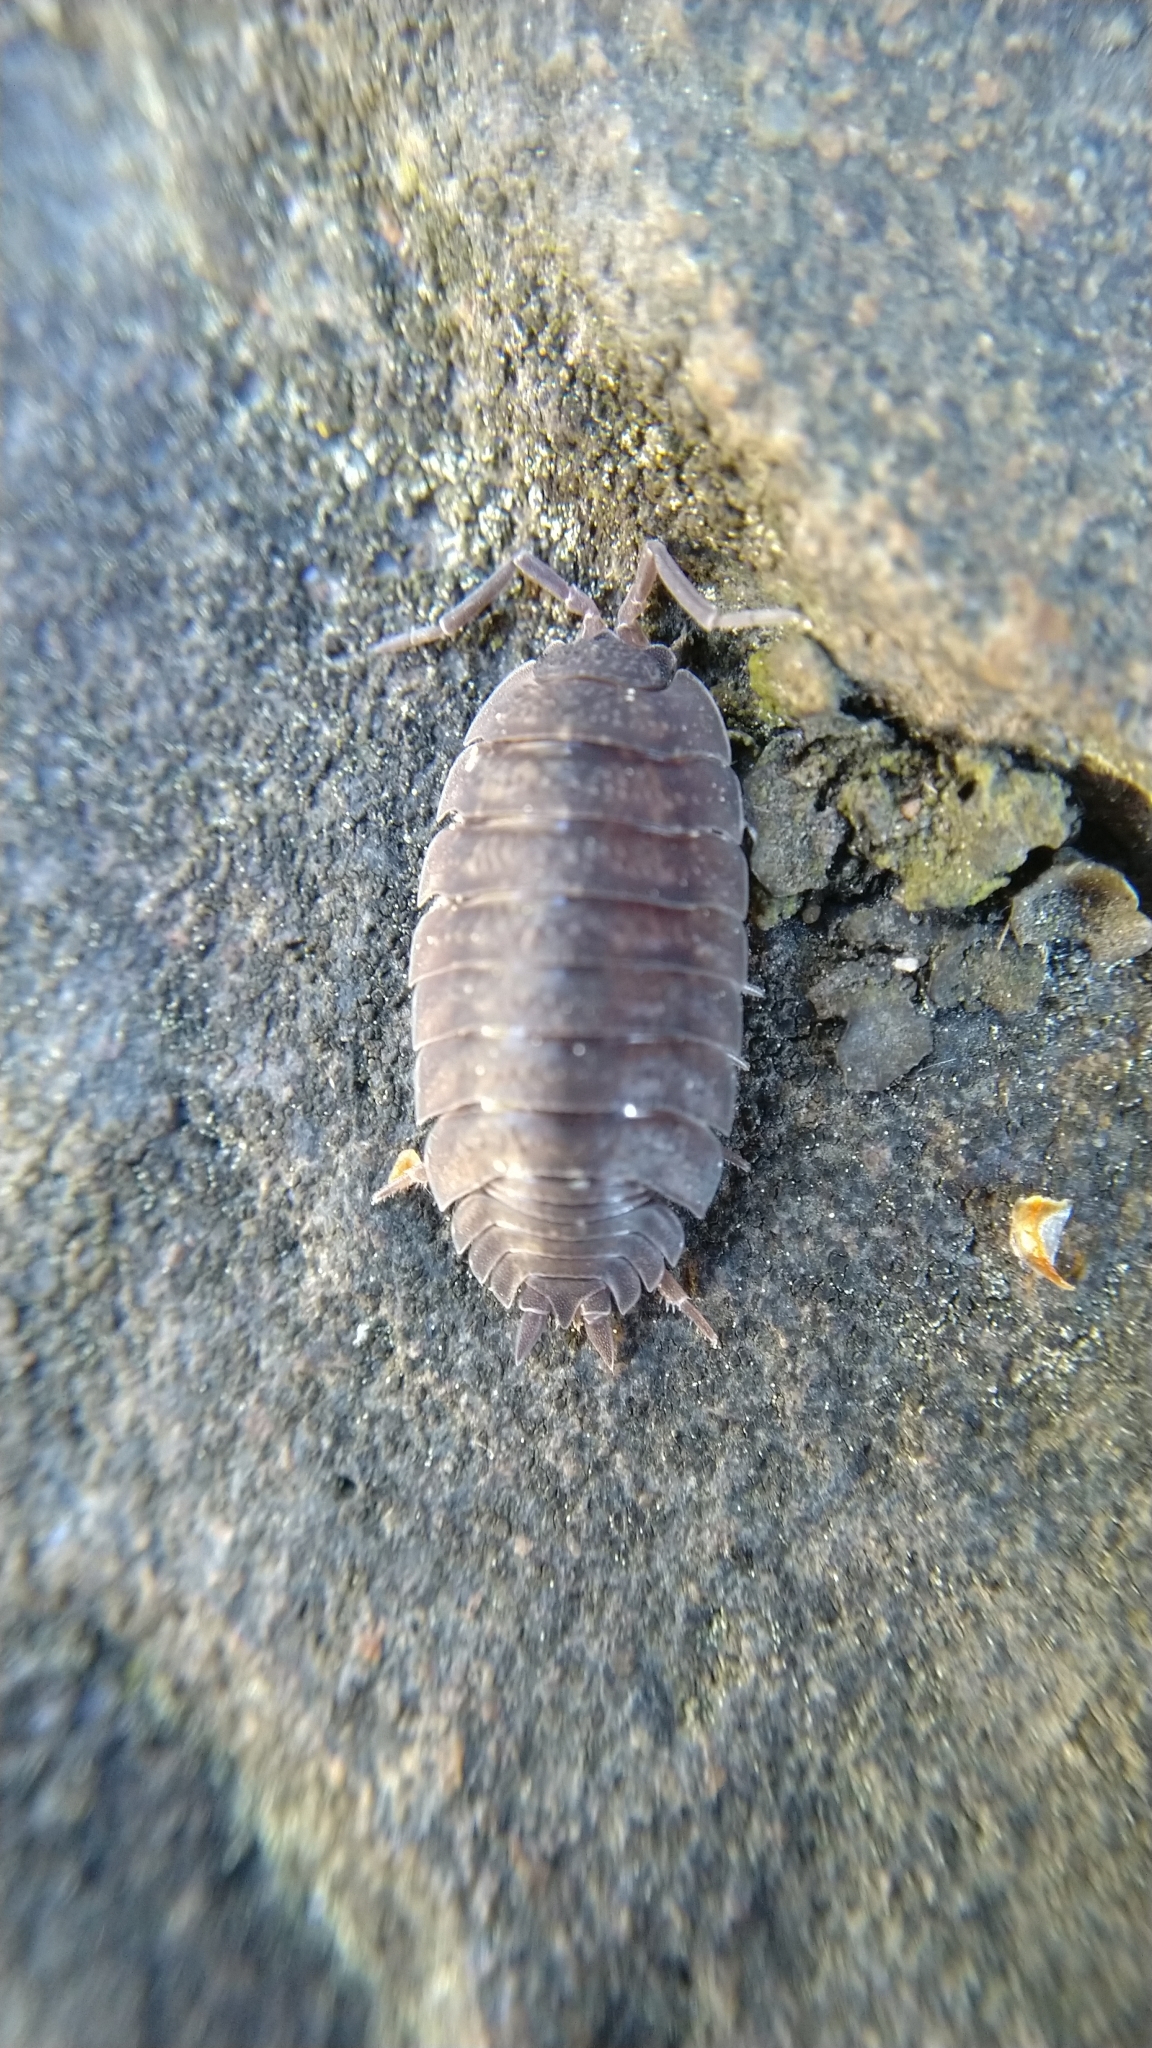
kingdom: Animalia
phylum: Arthropoda
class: Malacostraca
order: Isopoda
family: Porcellionidae
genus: Porcellio
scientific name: Porcellio scaber
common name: Common rough woodlouse
